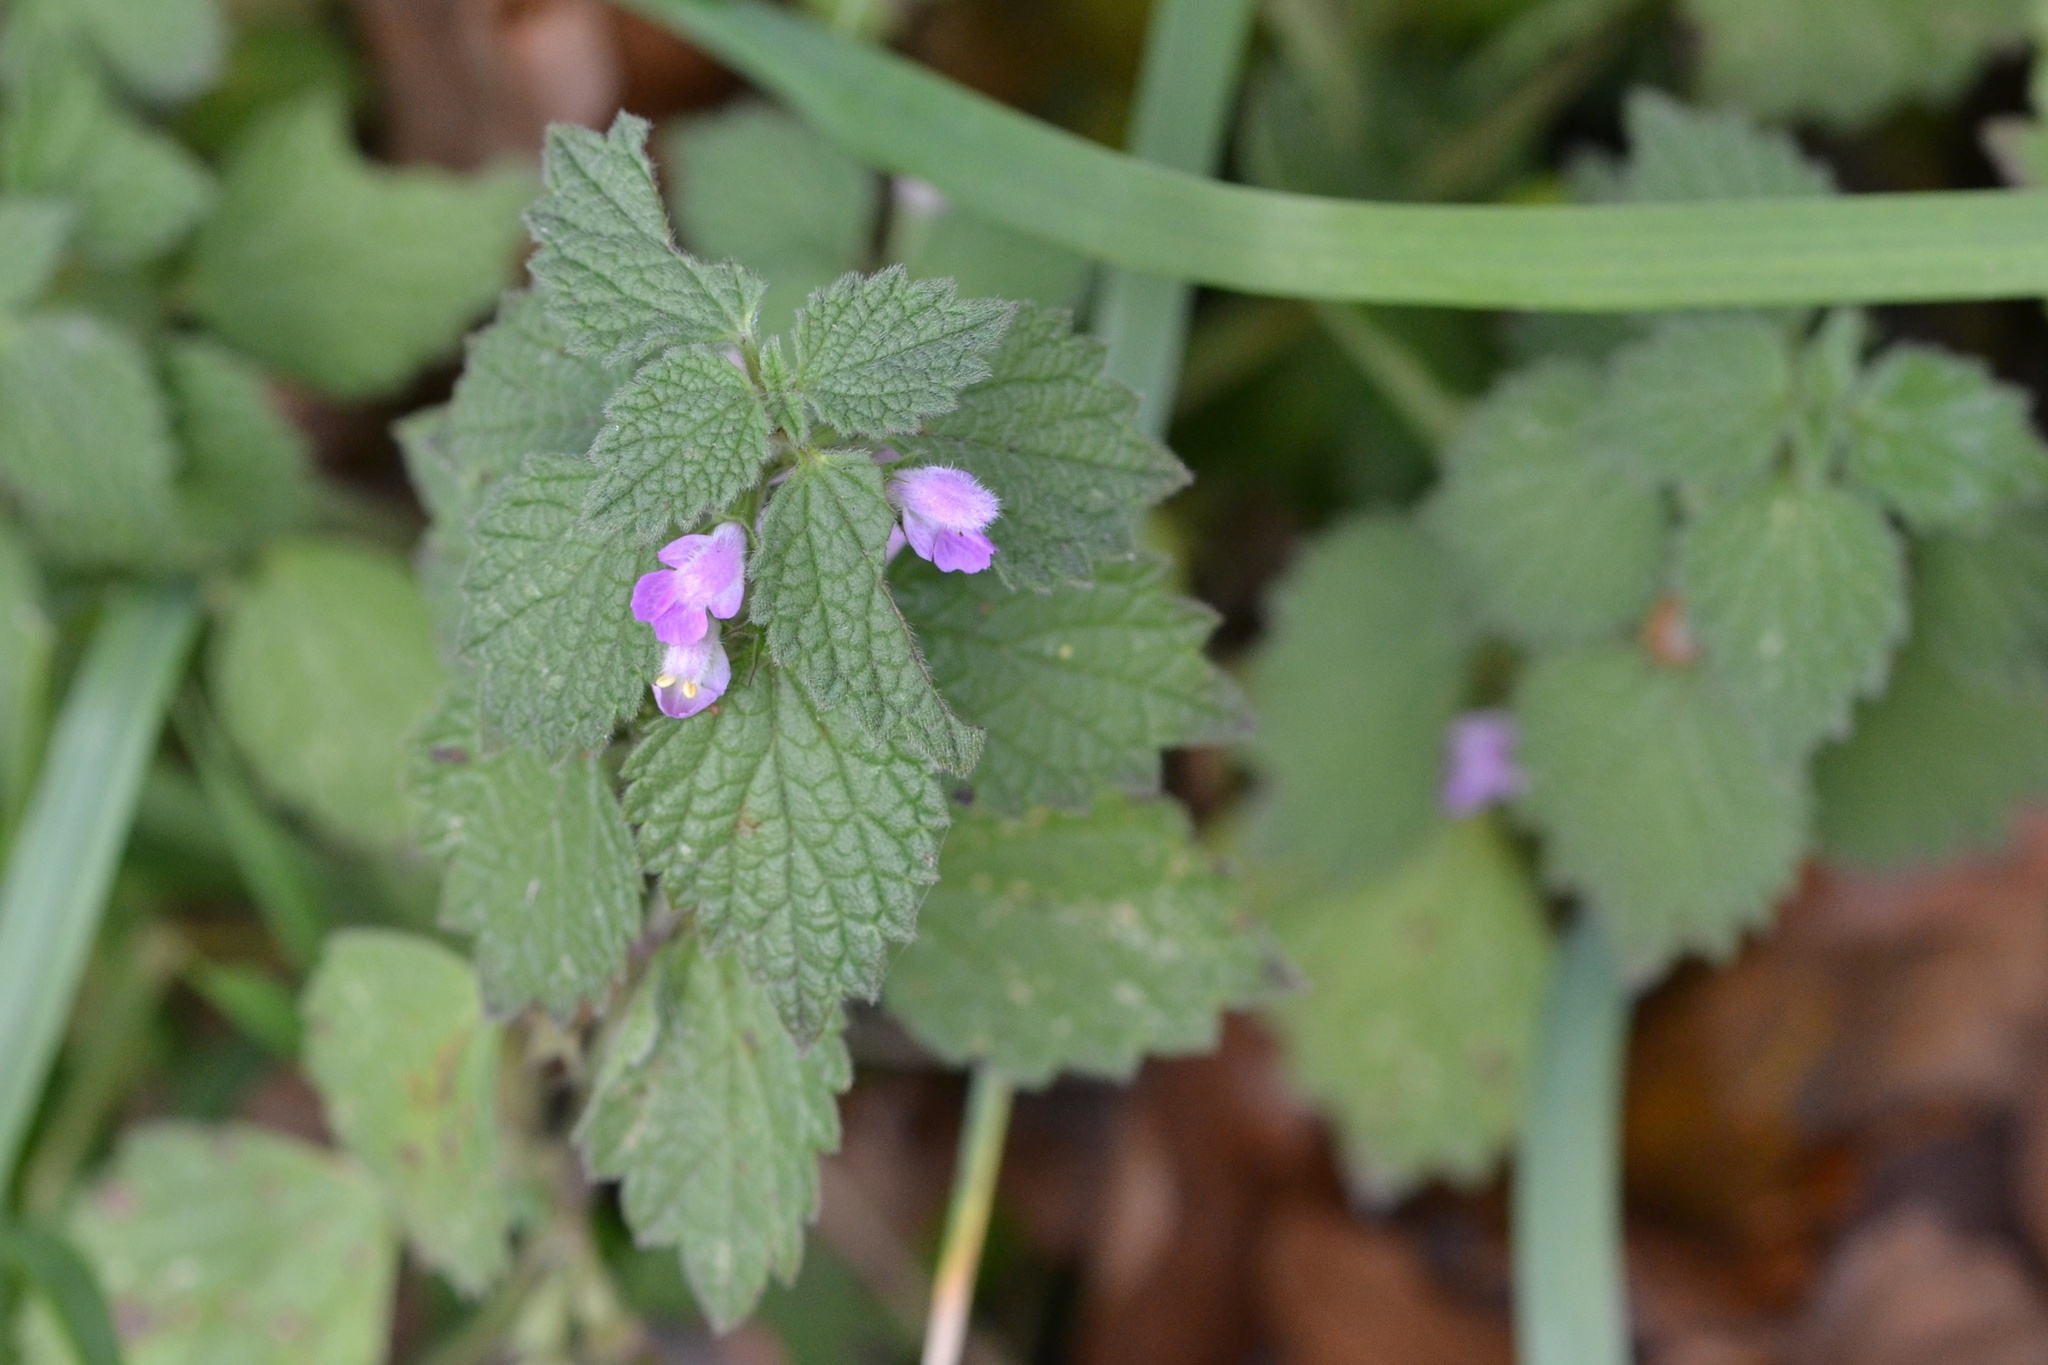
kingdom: Plantae
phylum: Tracheophyta
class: Magnoliopsida
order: Lamiales
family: Lamiaceae
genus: Ballota
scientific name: Ballota nigra
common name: Black horehound
